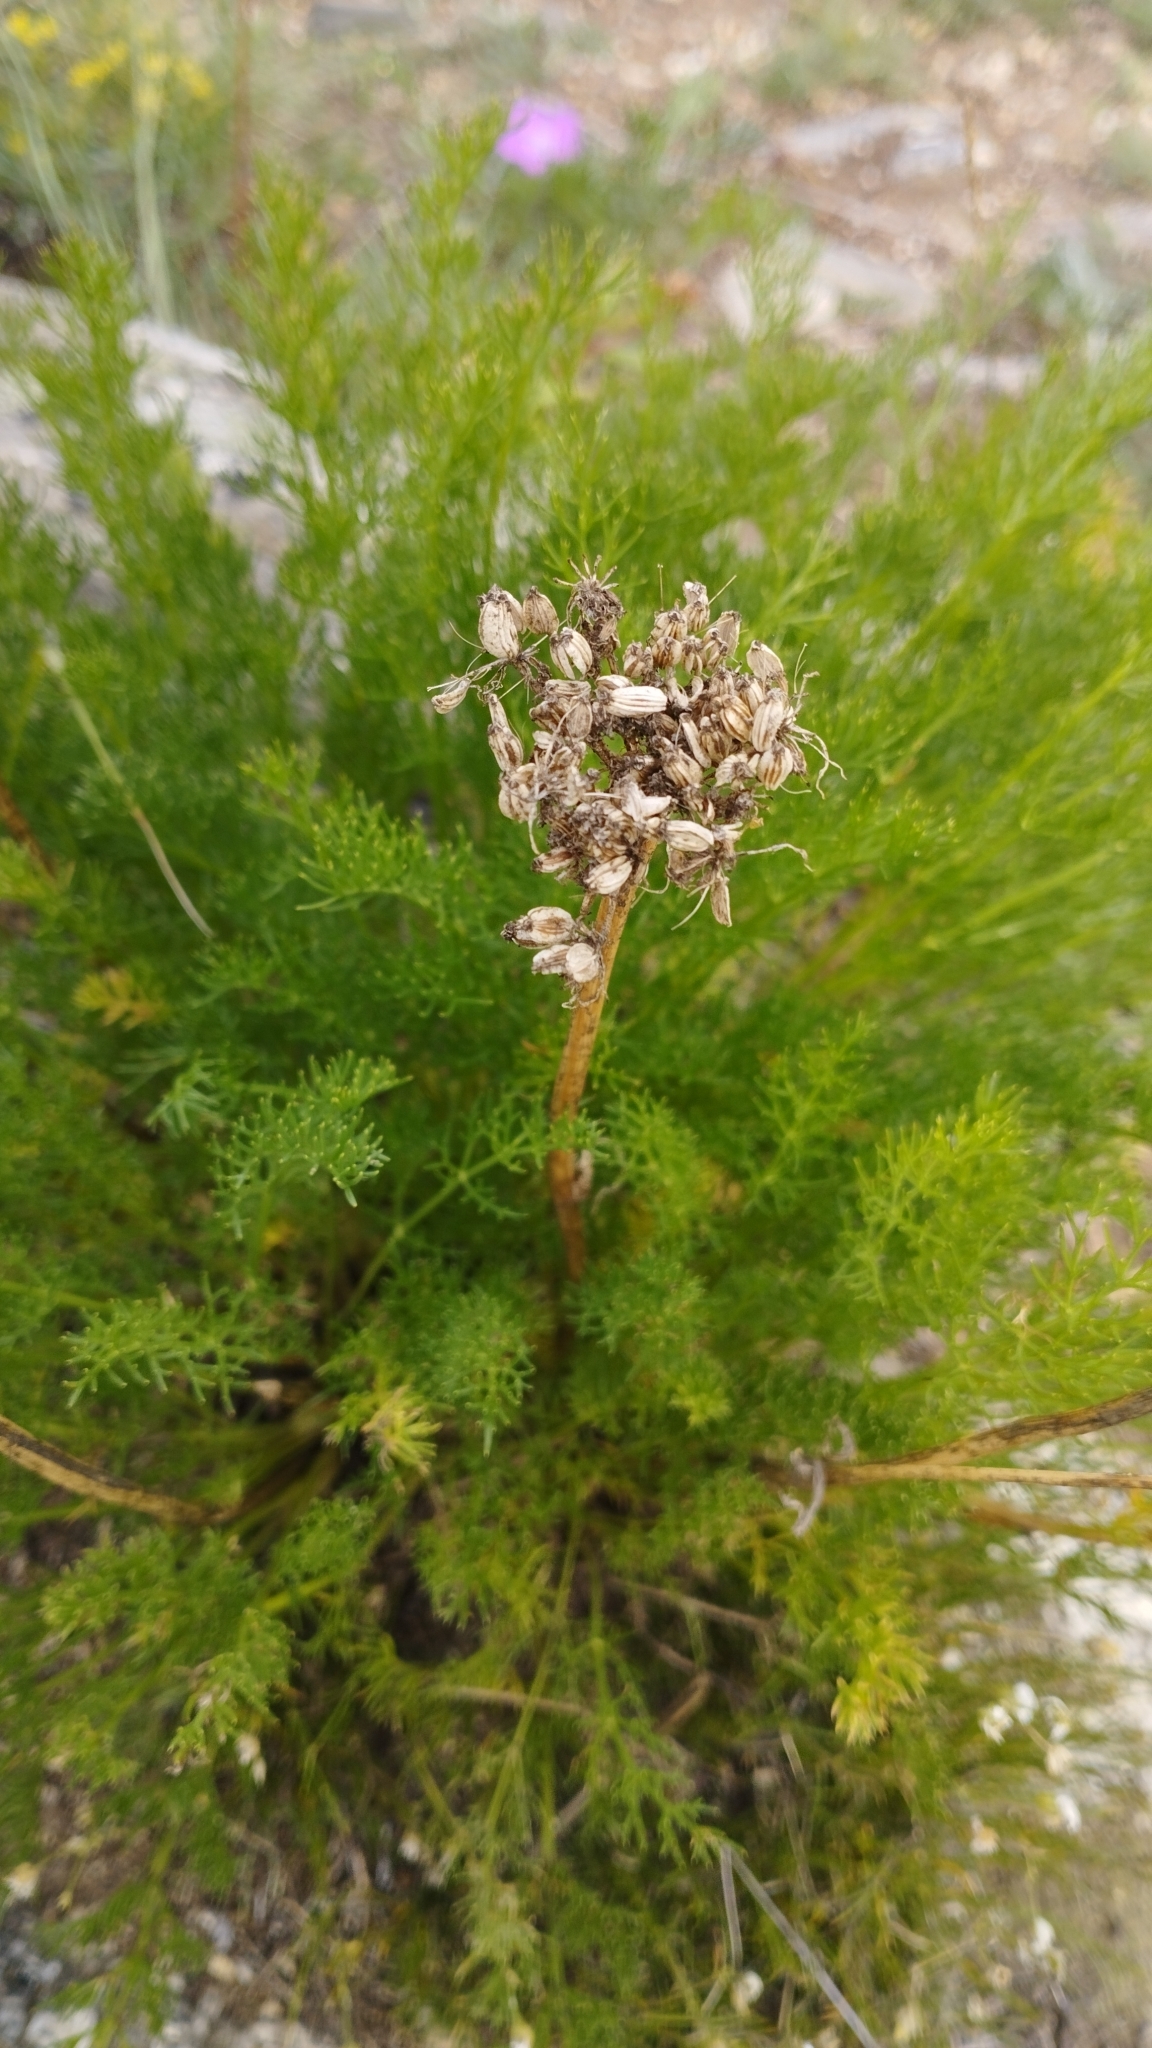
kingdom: Plantae
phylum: Tracheophyta
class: Magnoliopsida
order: Apiales
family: Apiaceae
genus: Ferulopsis
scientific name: Ferulopsis hystrix
